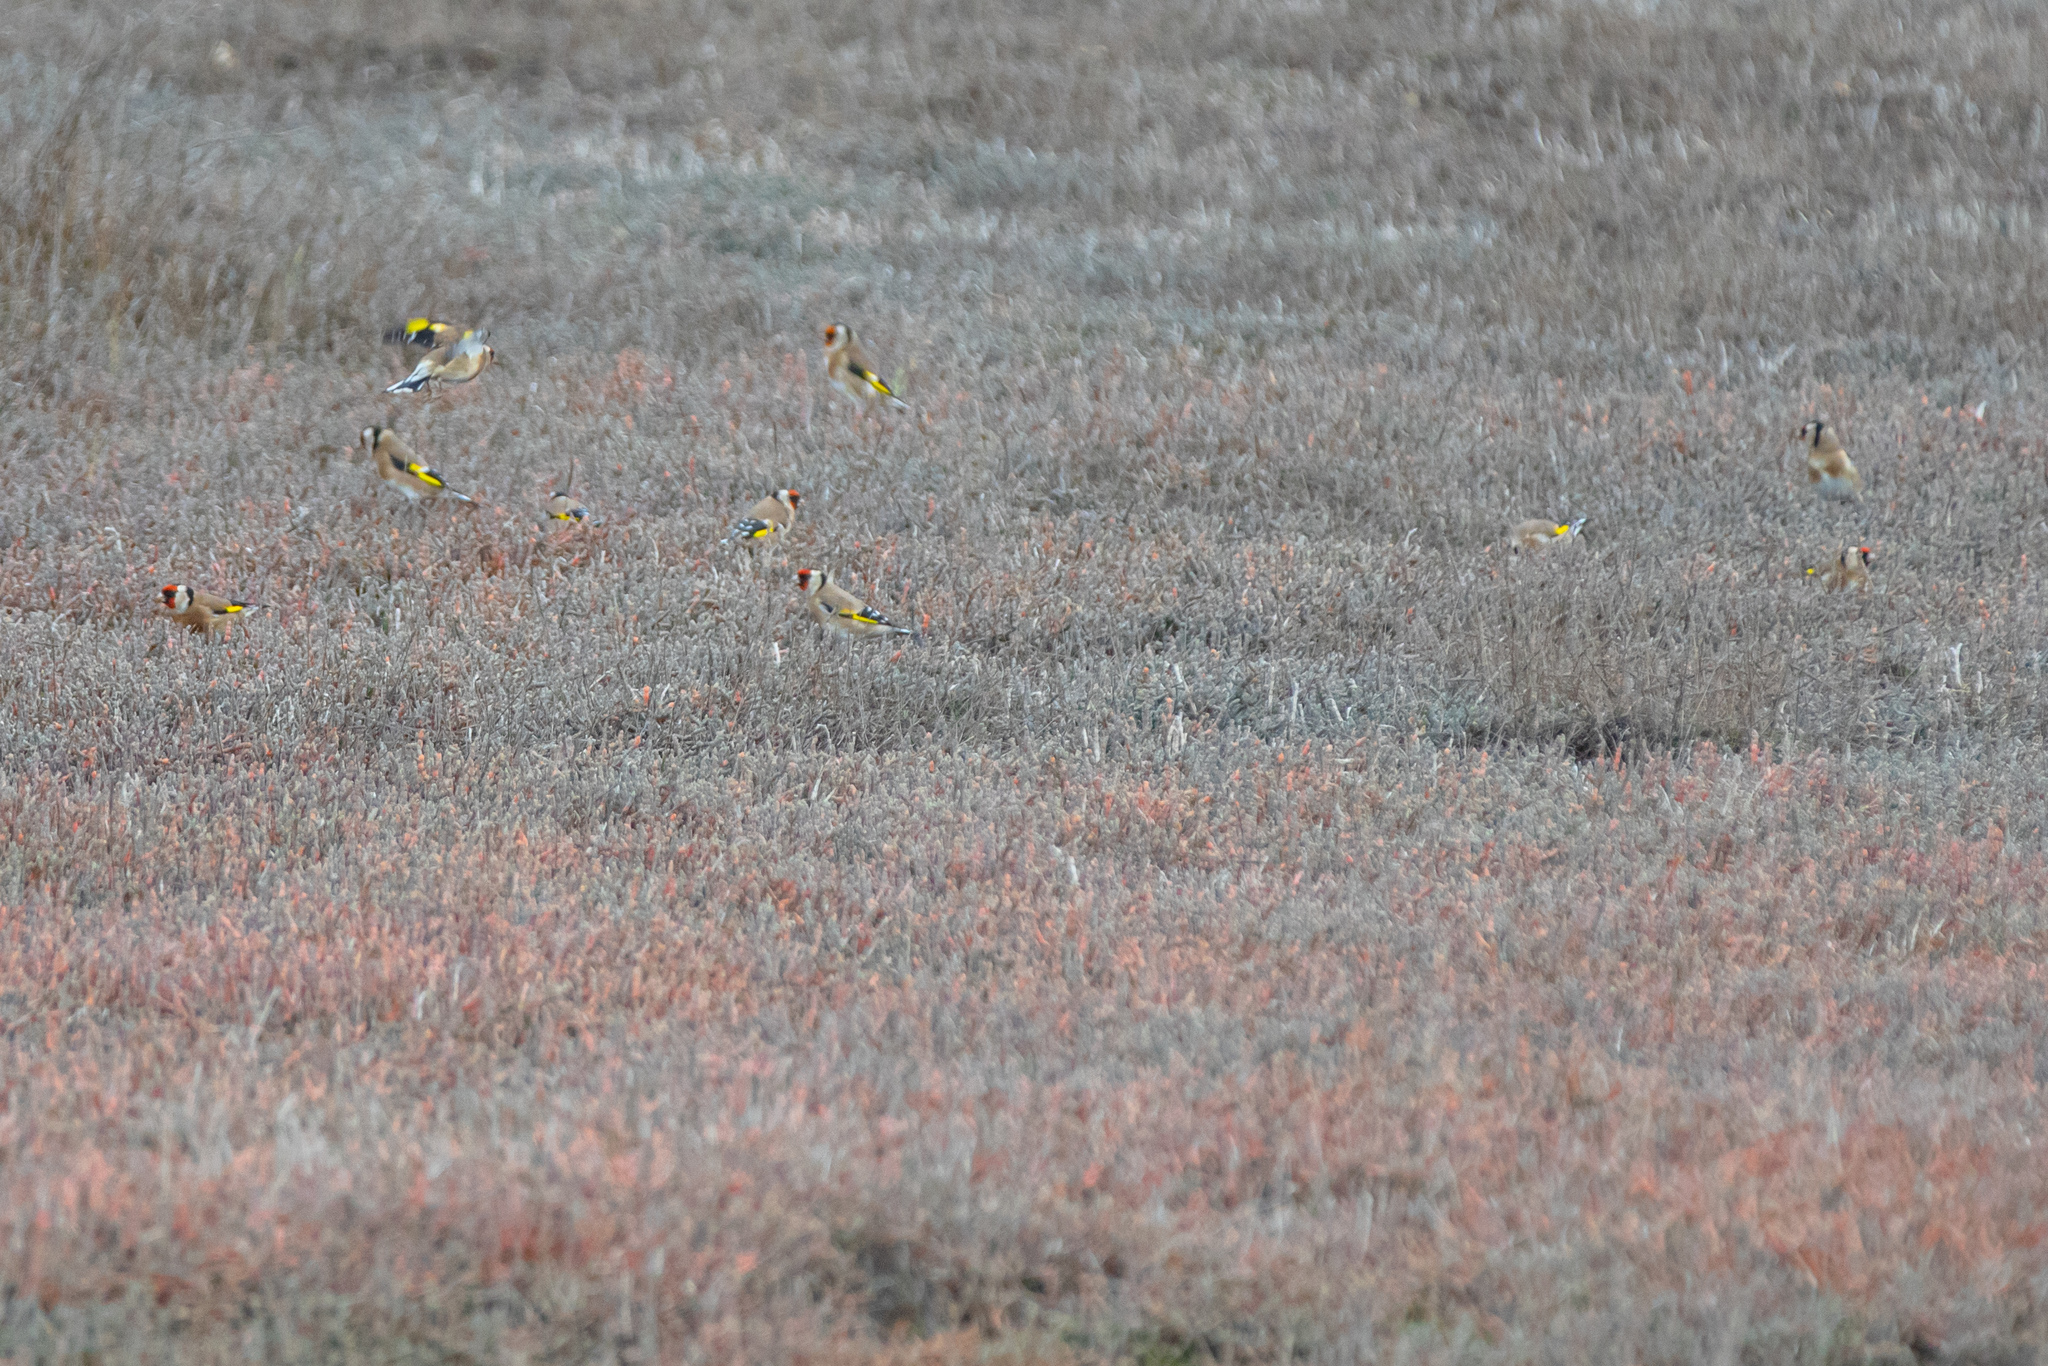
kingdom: Animalia
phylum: Chordata
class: Aves
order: Passeriformes
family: Fringillidae
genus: Carduelis
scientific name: Carduelis carduelis
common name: European goldfinch
